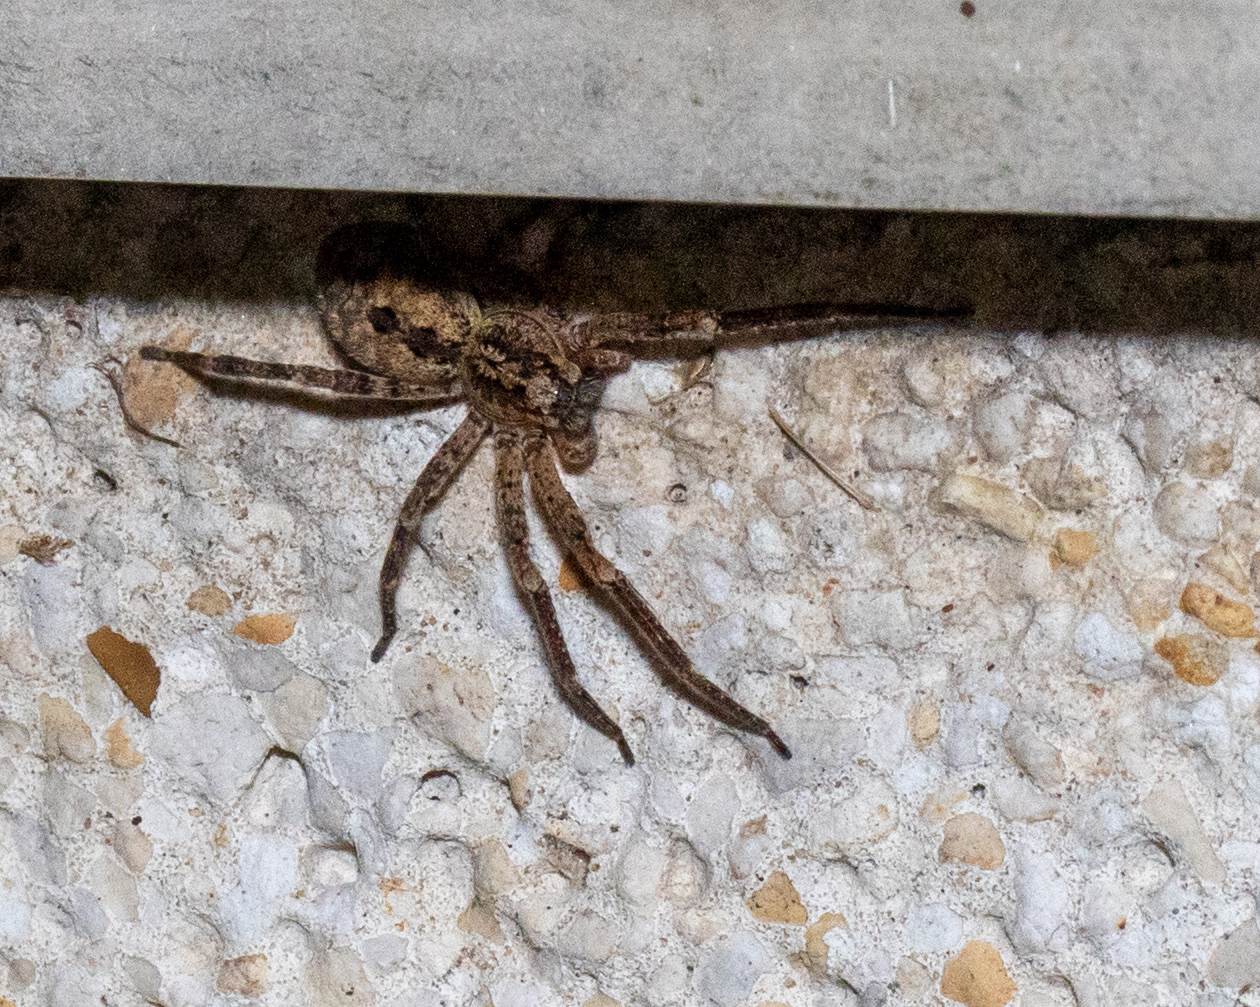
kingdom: Animalia
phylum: Arthropoda
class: Arachnida
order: Araneae
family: Zoropsidae
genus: Zoropsis
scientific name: Zoropsis spinimana
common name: Zoropsid spider
